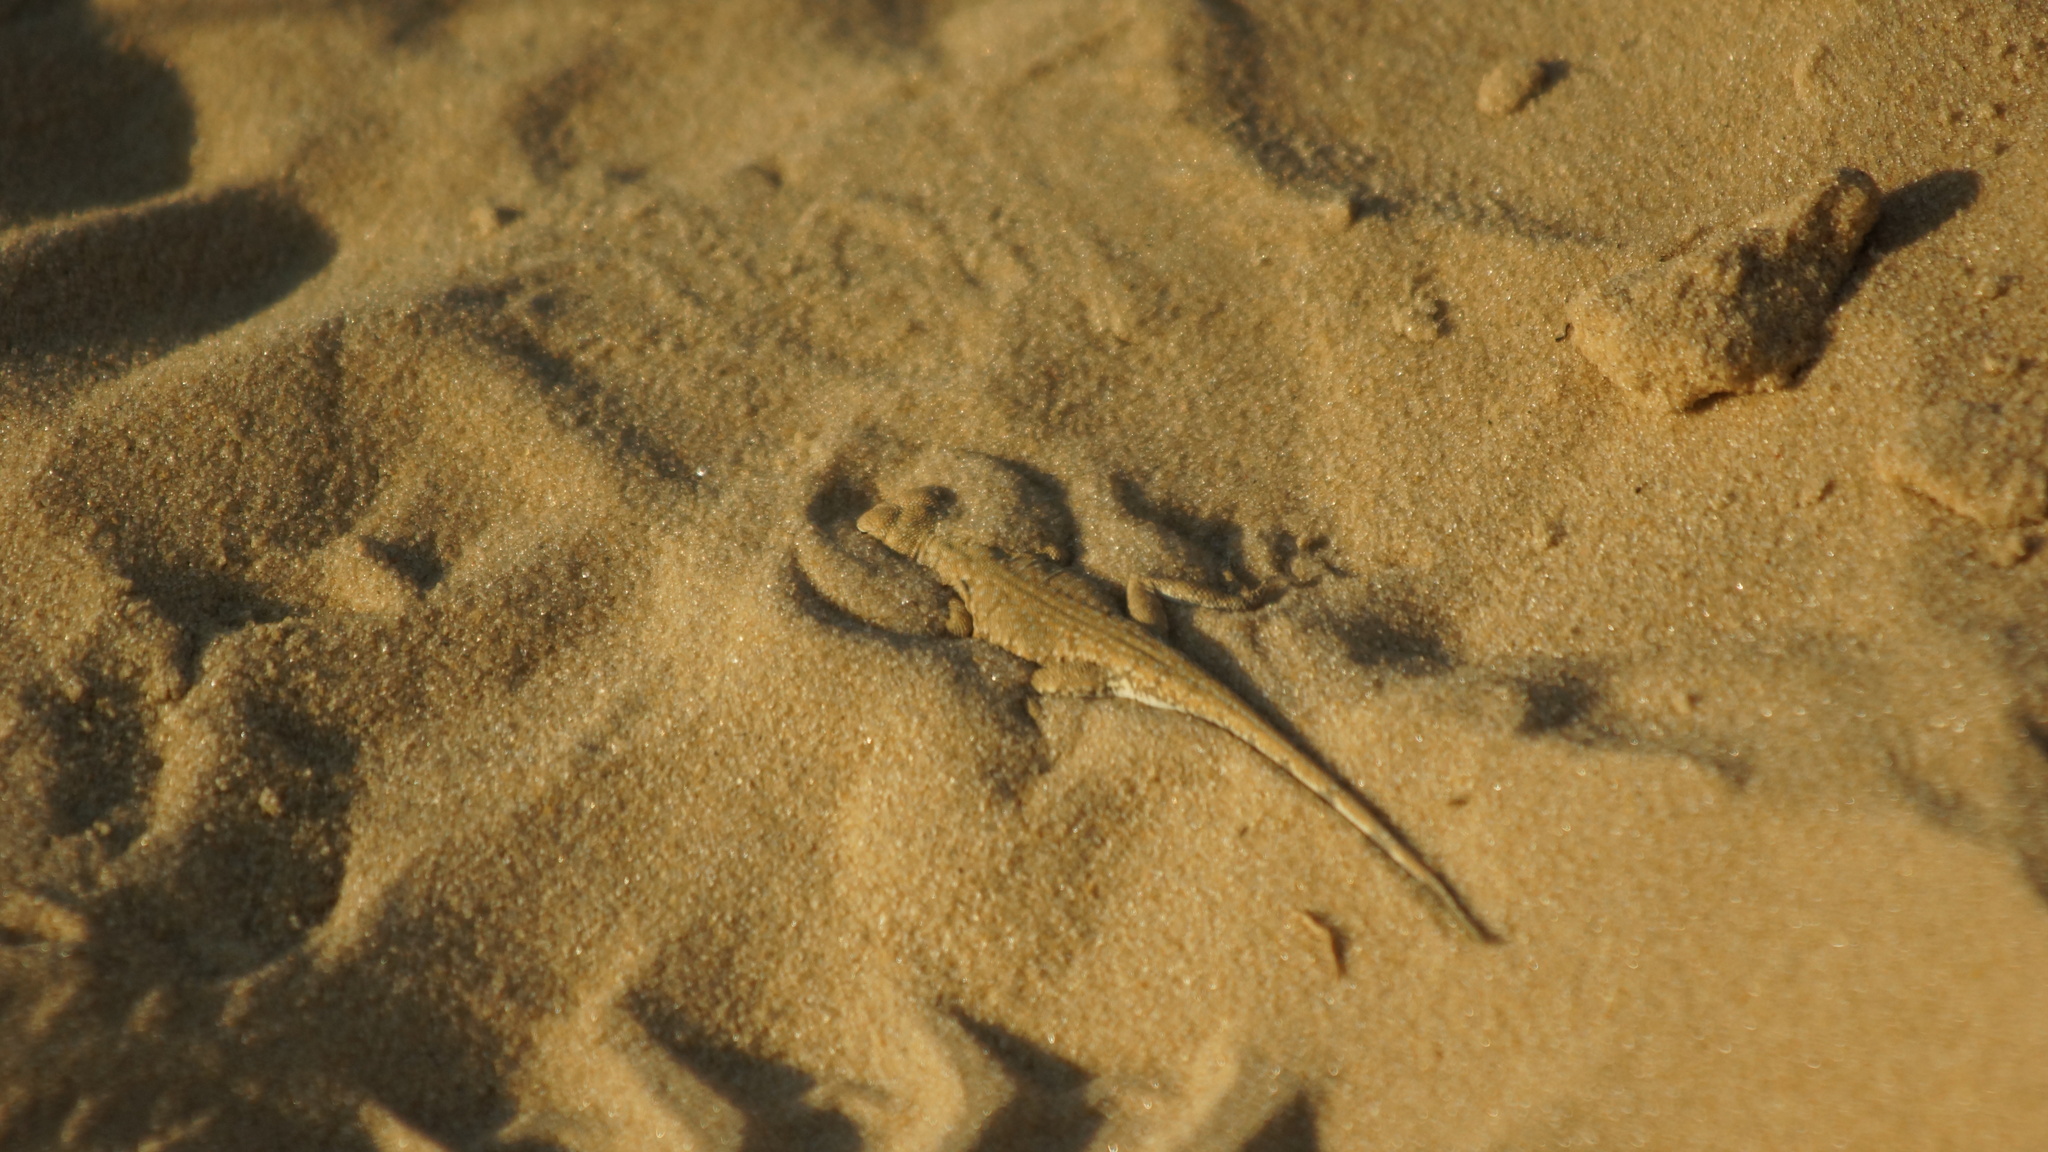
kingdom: Animalia
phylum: Chordata
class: Squamata
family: Agamidae
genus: Phrynocephalus
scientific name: Phrynocephalus guttatus
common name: Spotted toadhead agama
